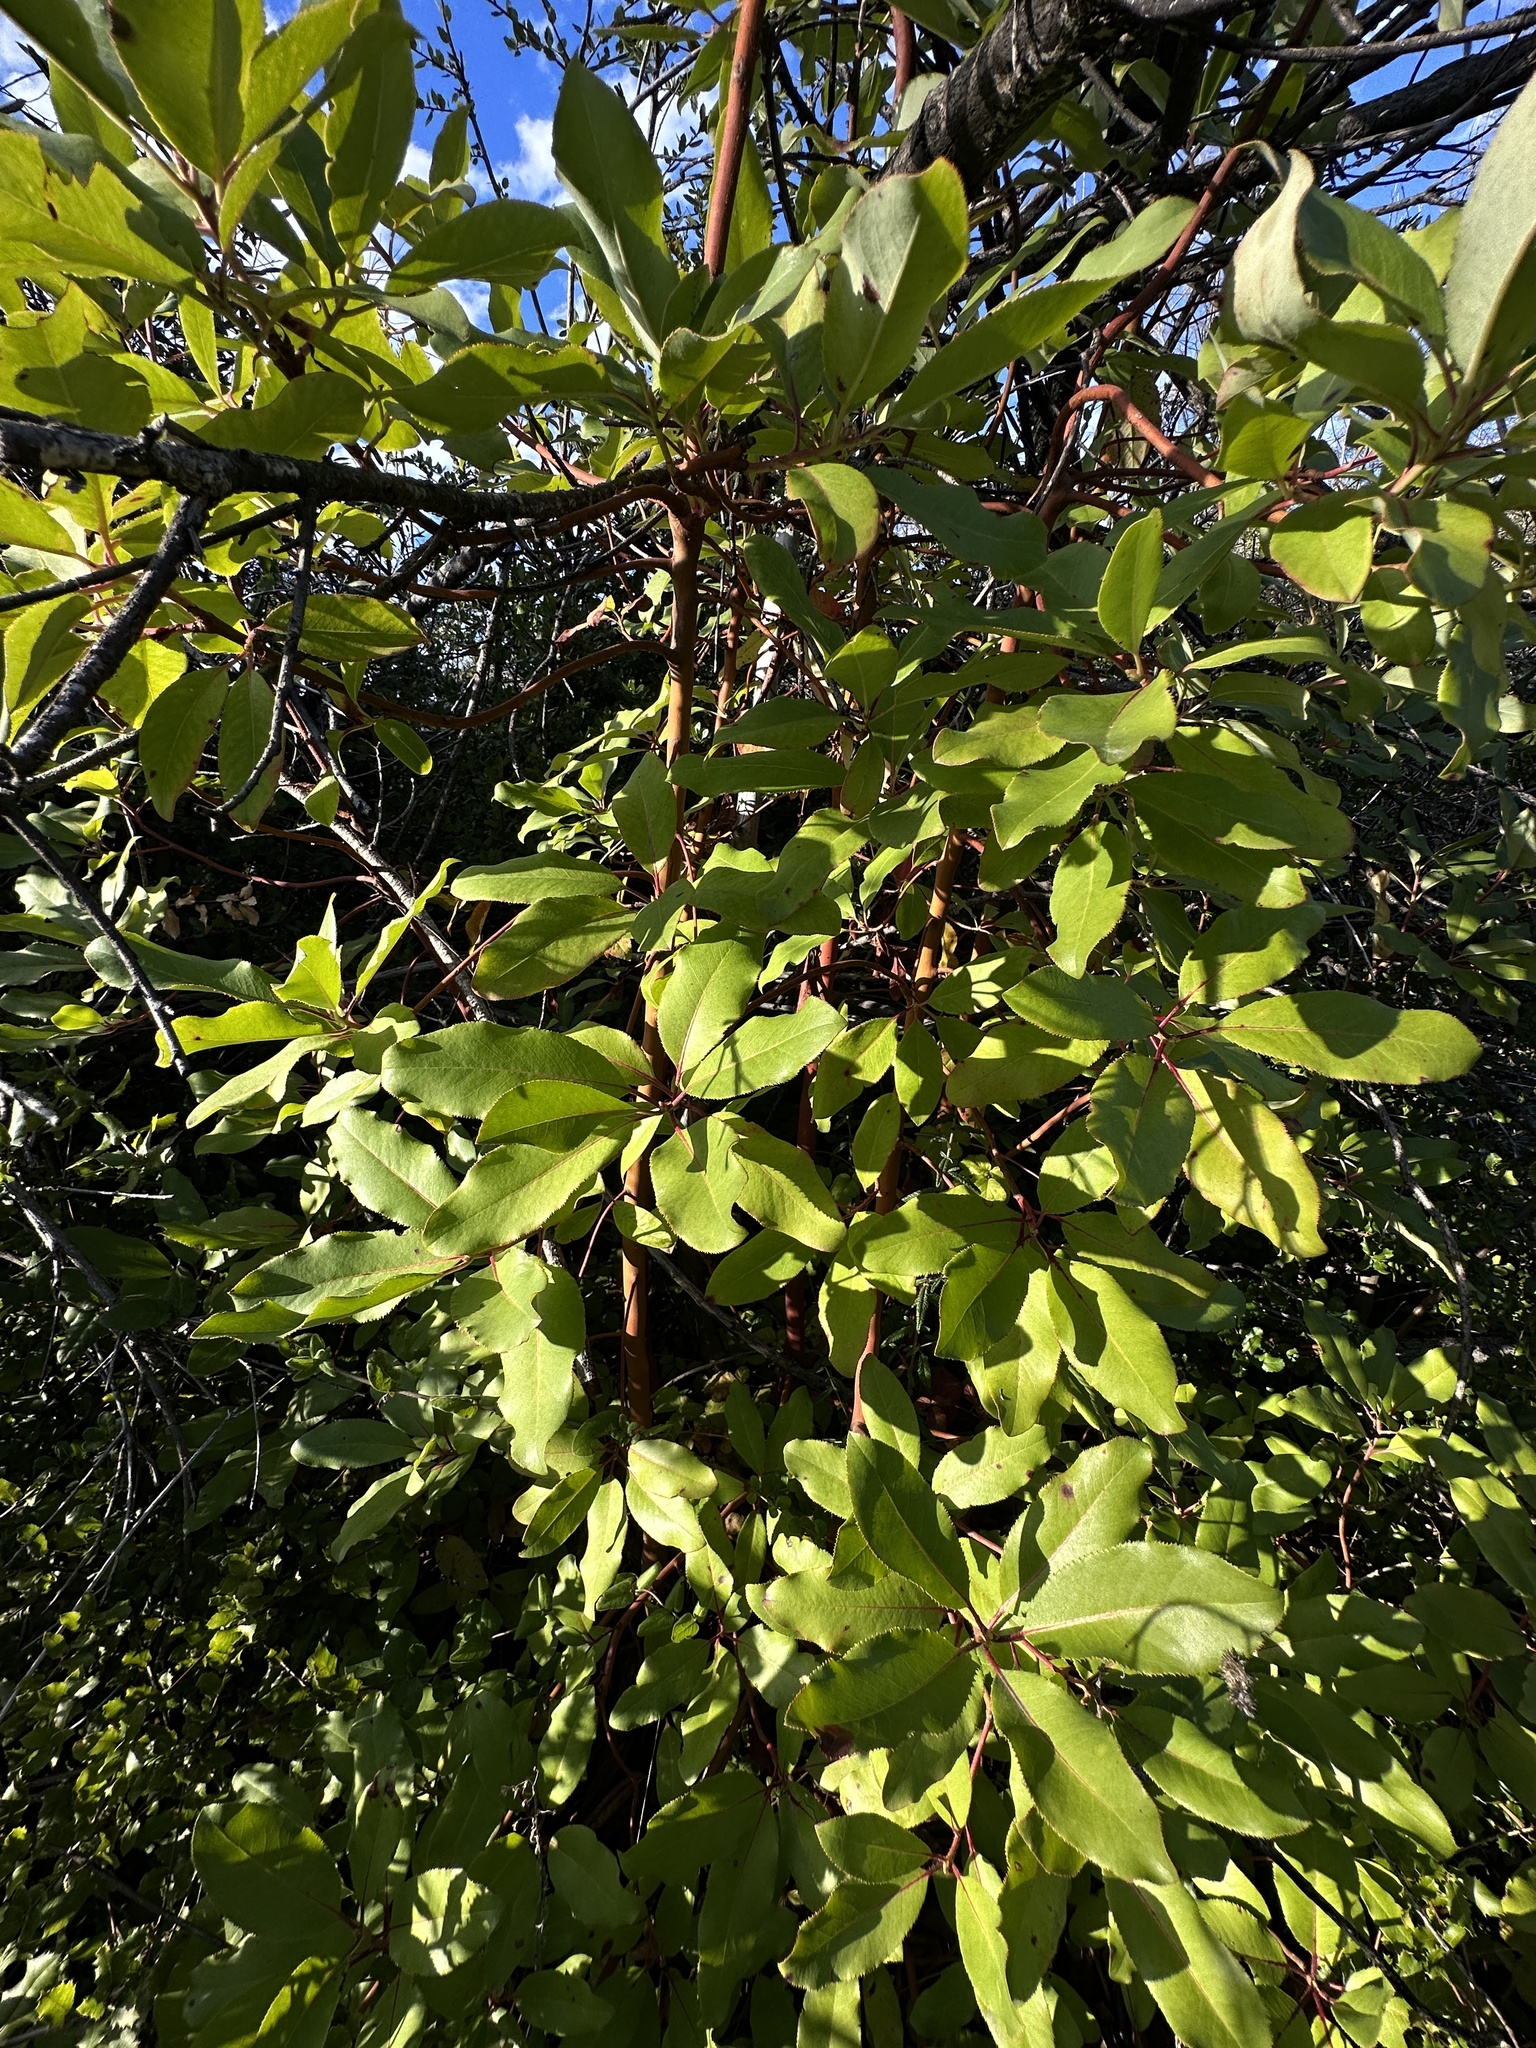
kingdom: Plantae
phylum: Tracheophyta
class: Magnoliopsida
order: Ericales
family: Ericaceae
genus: Arbutus
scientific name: Arbutus menziesii
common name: Pacific madrone
